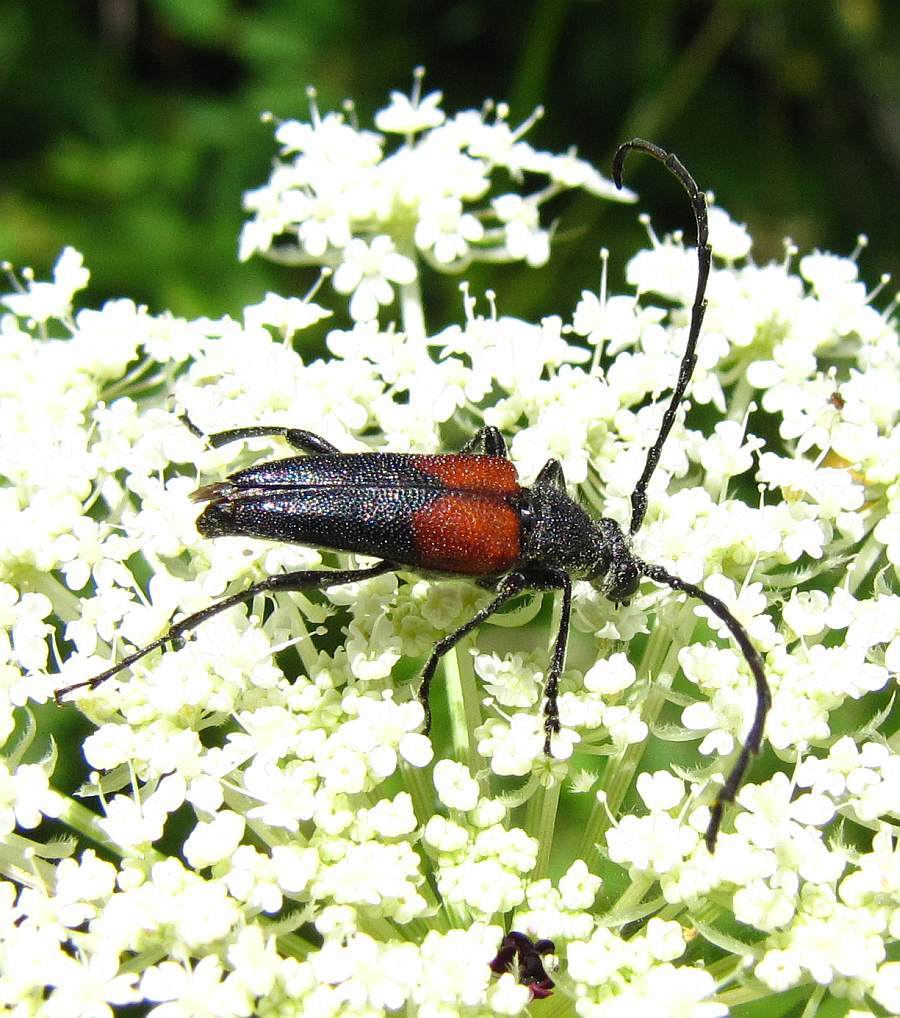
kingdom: Animalia
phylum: Arthropoda
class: Insecta
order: Coleoptera
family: Cerambycidae
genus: Stictoleptura
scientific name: Stictoleptura canadensis
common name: Red-shouldered pine borer
